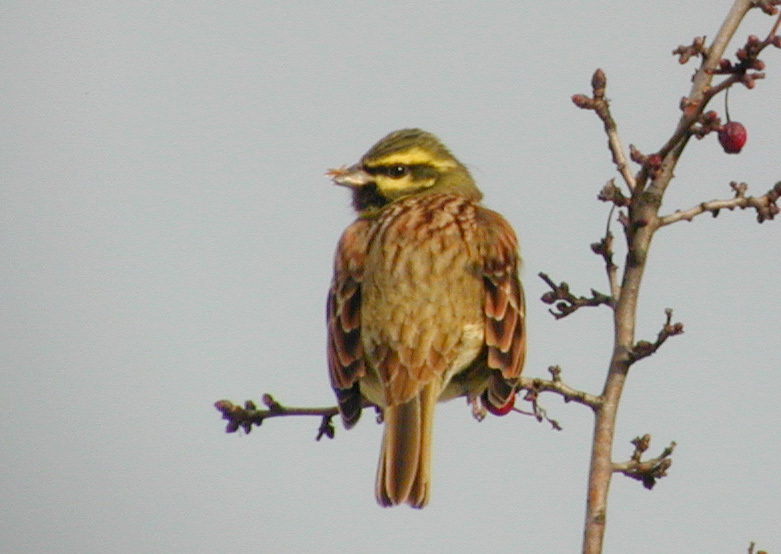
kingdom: Animalia
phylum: Chordata
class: Aves
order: Passeriformes
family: Emberizidae
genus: Emberiza
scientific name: Emberiza cirlus
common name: Cirl bunting
